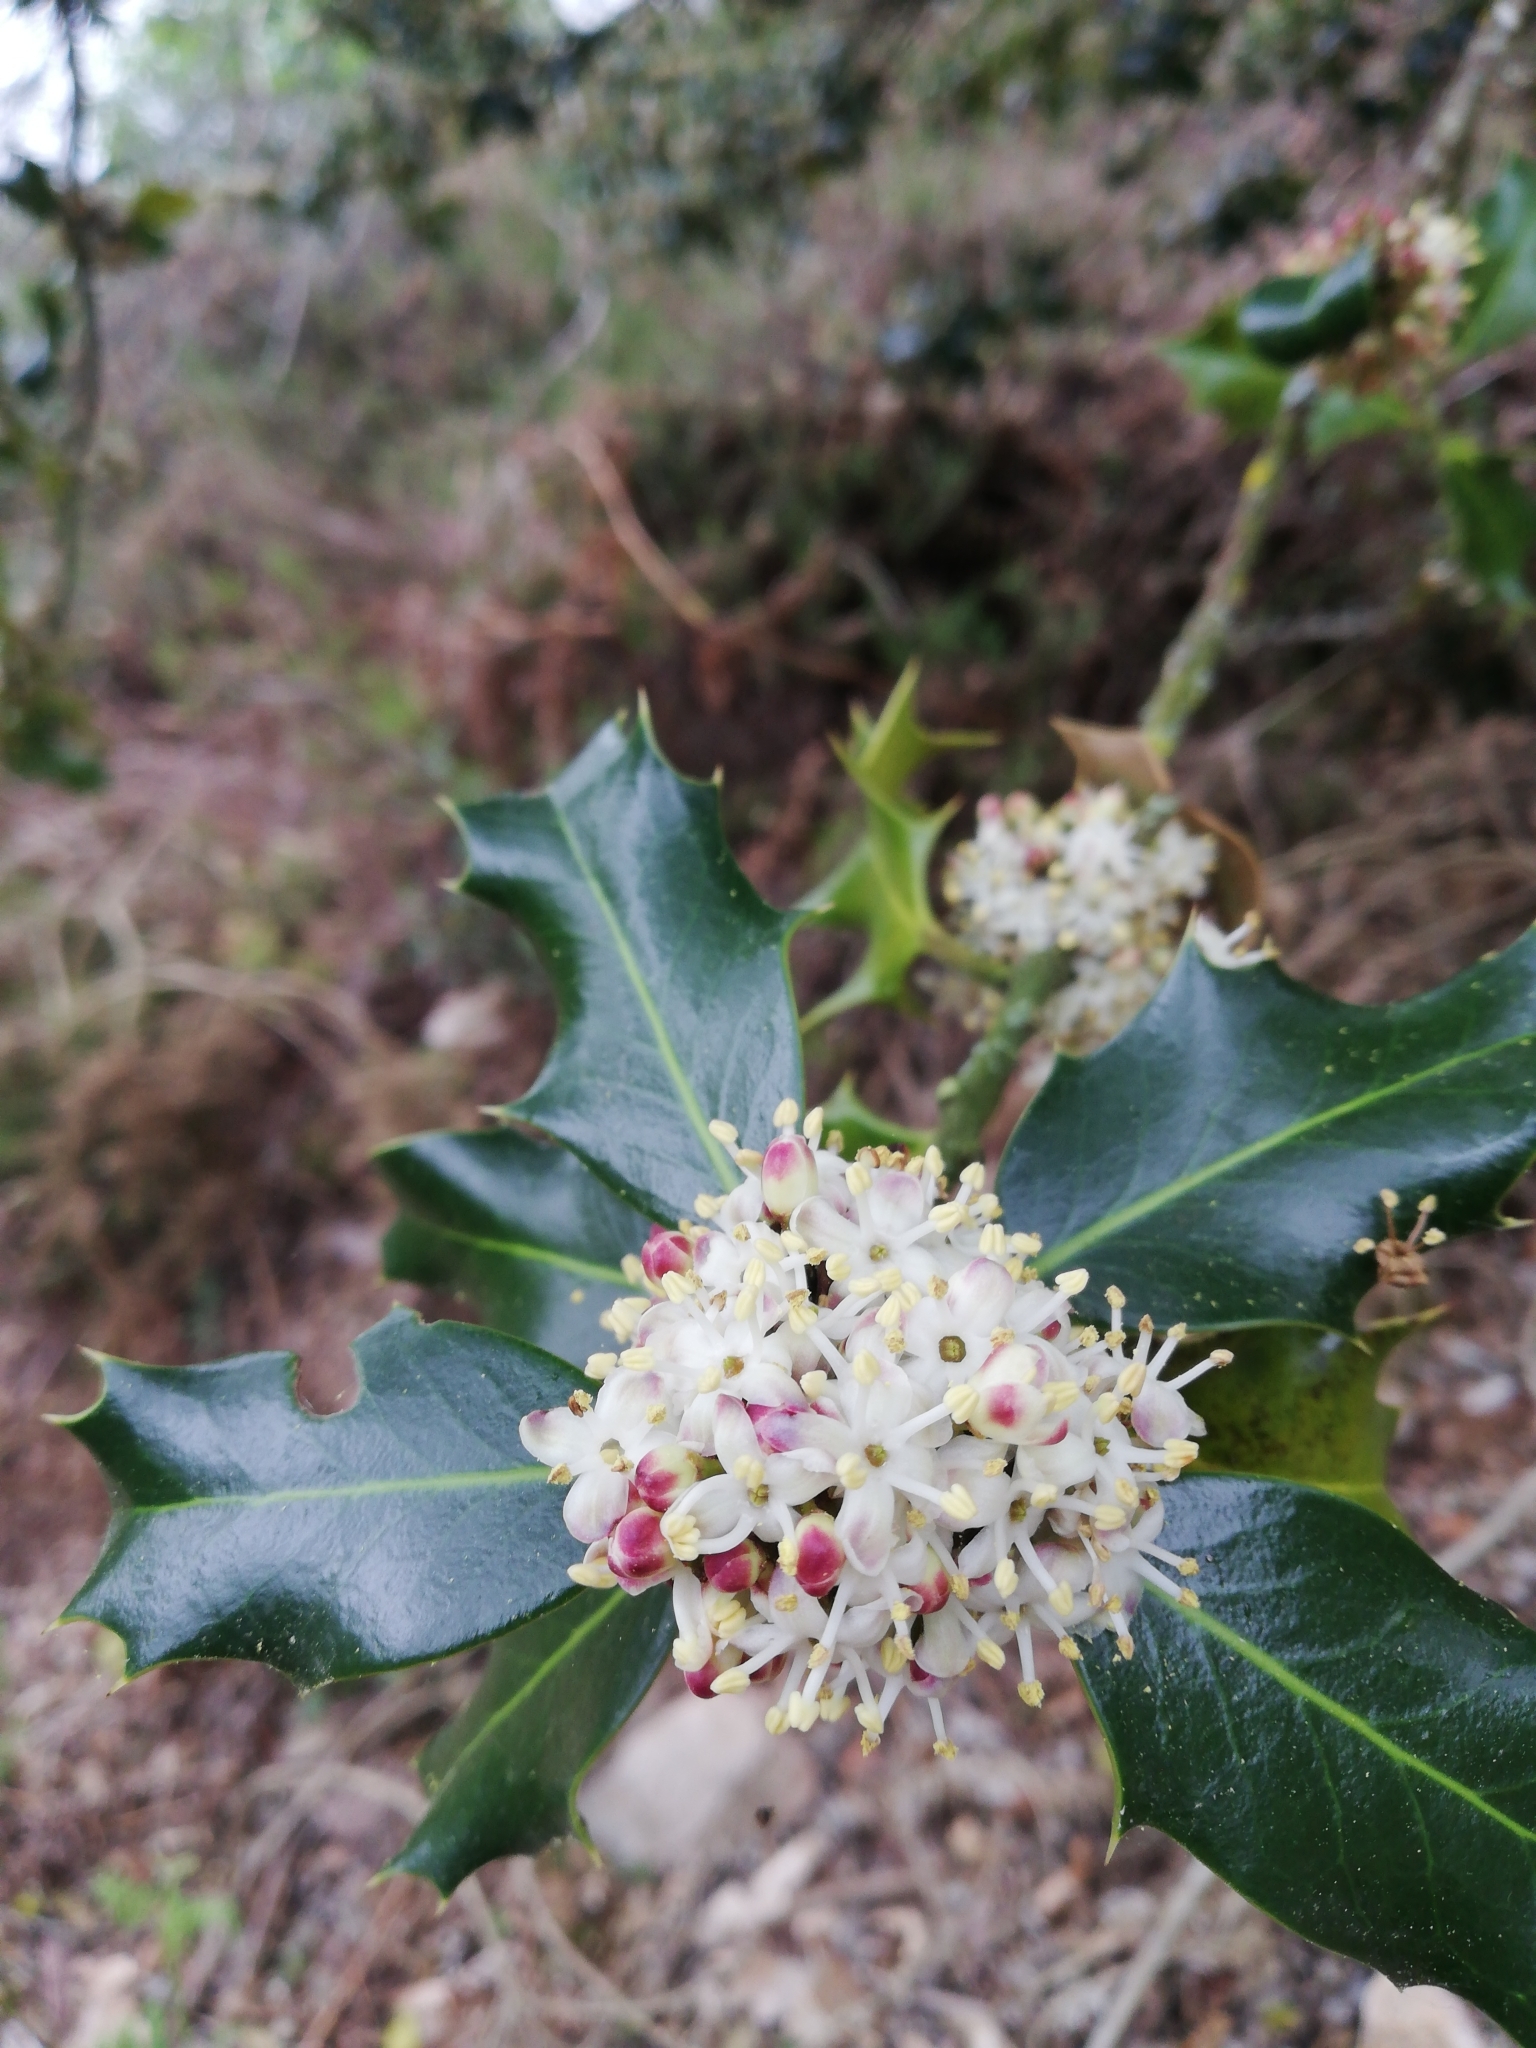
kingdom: Plantae
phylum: Tracheophyta
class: Magnoliopsida
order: Aquifoliales
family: Aquifoliaceae
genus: Ilex
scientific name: Ilex aquifolium
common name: English holly
